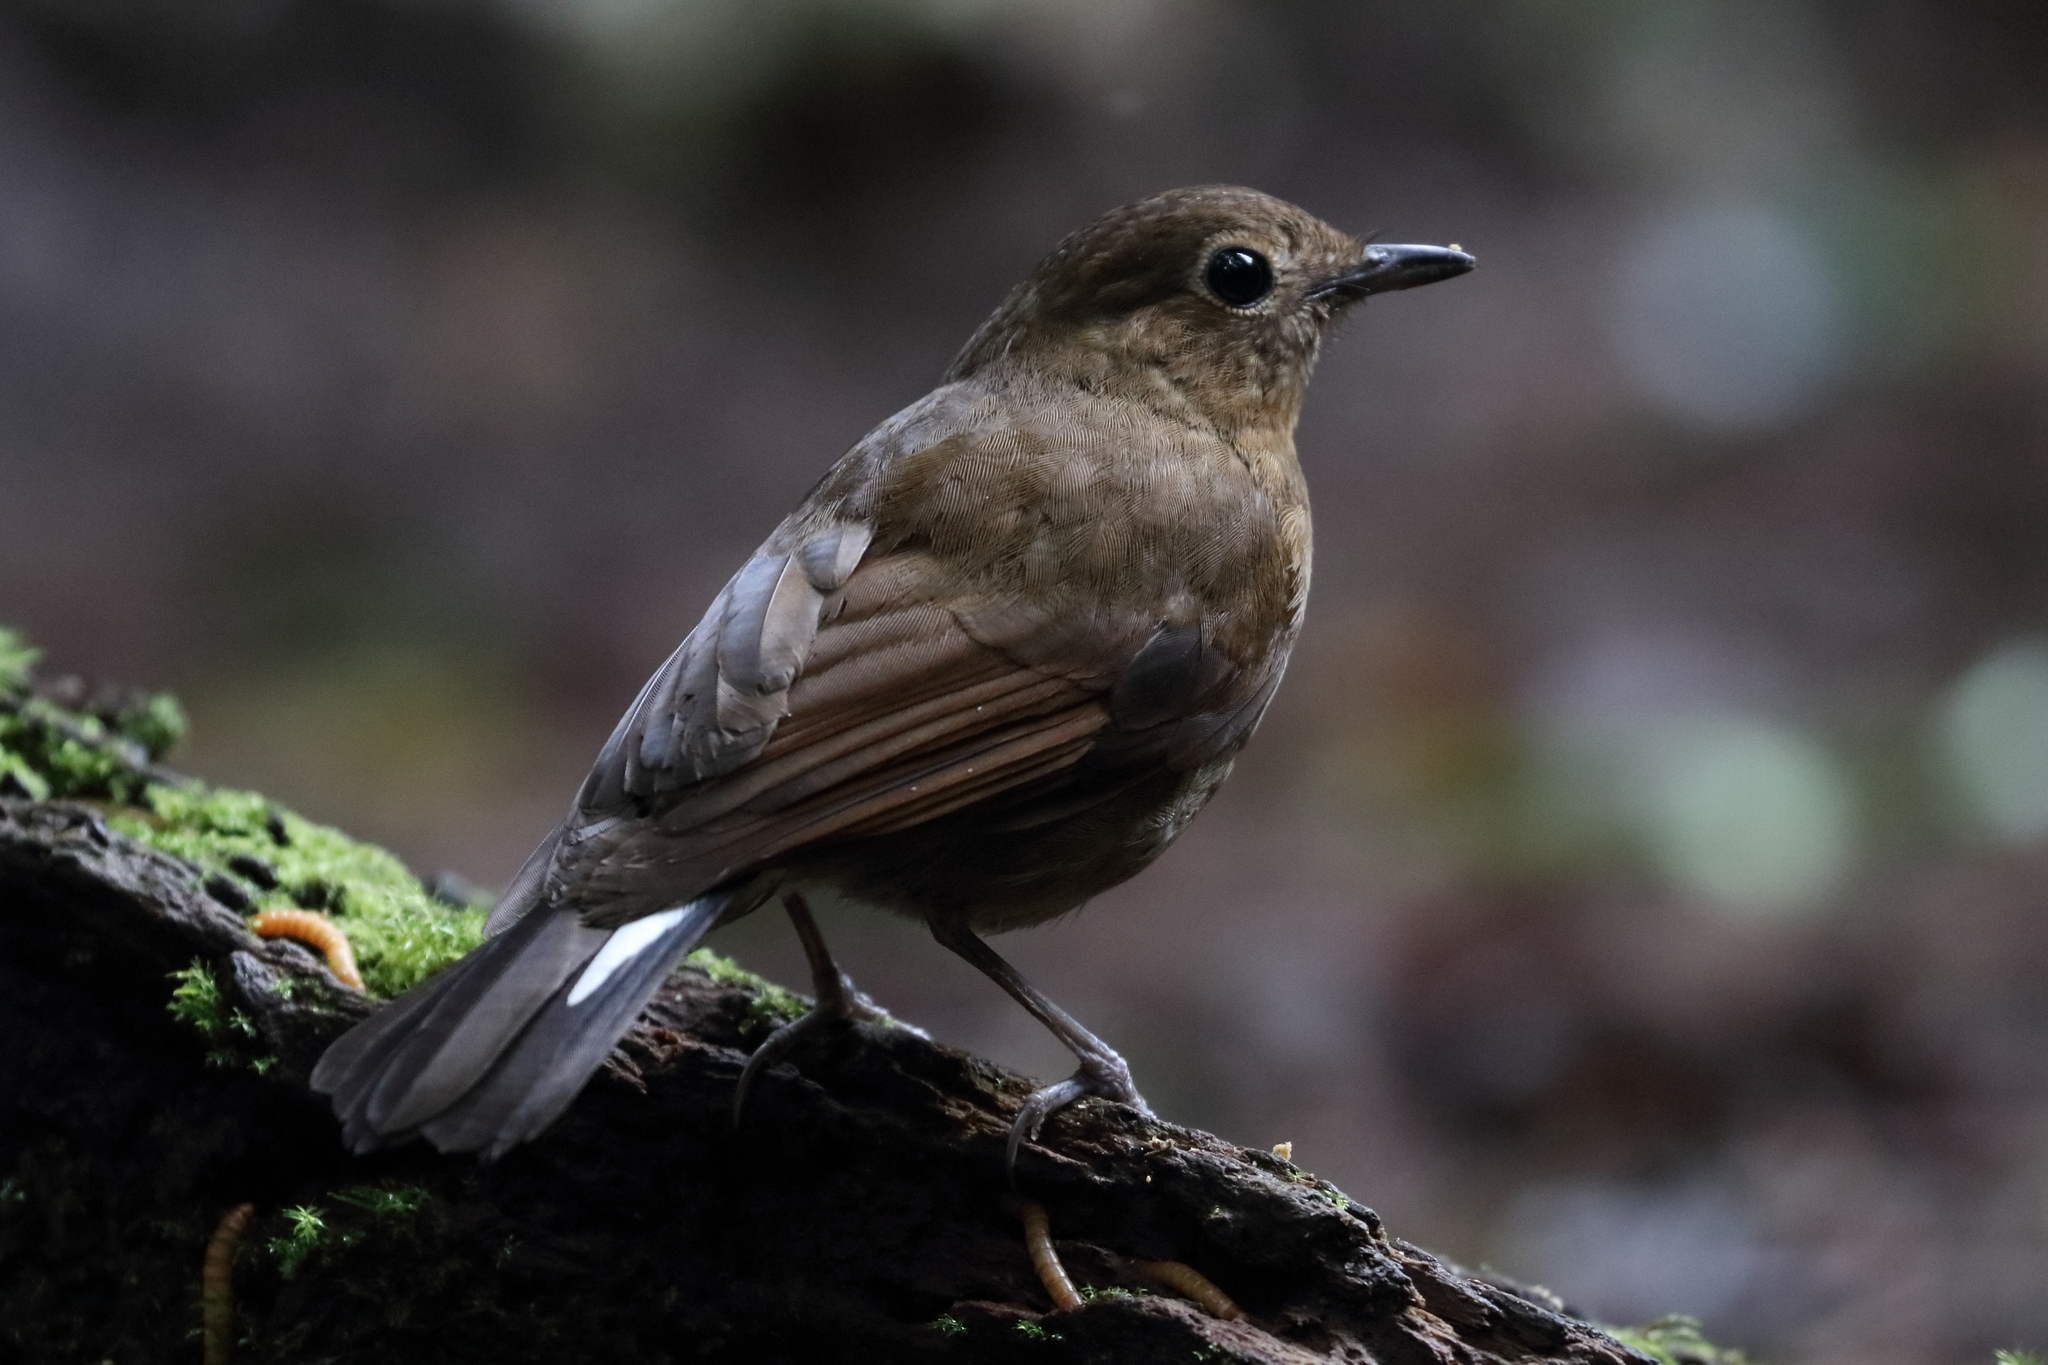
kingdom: Animalia
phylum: Chordata
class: Aves
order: Passeriformes
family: Muscicapidae
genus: Myiomela
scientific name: Myiomela leucura
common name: White-tailed robin
